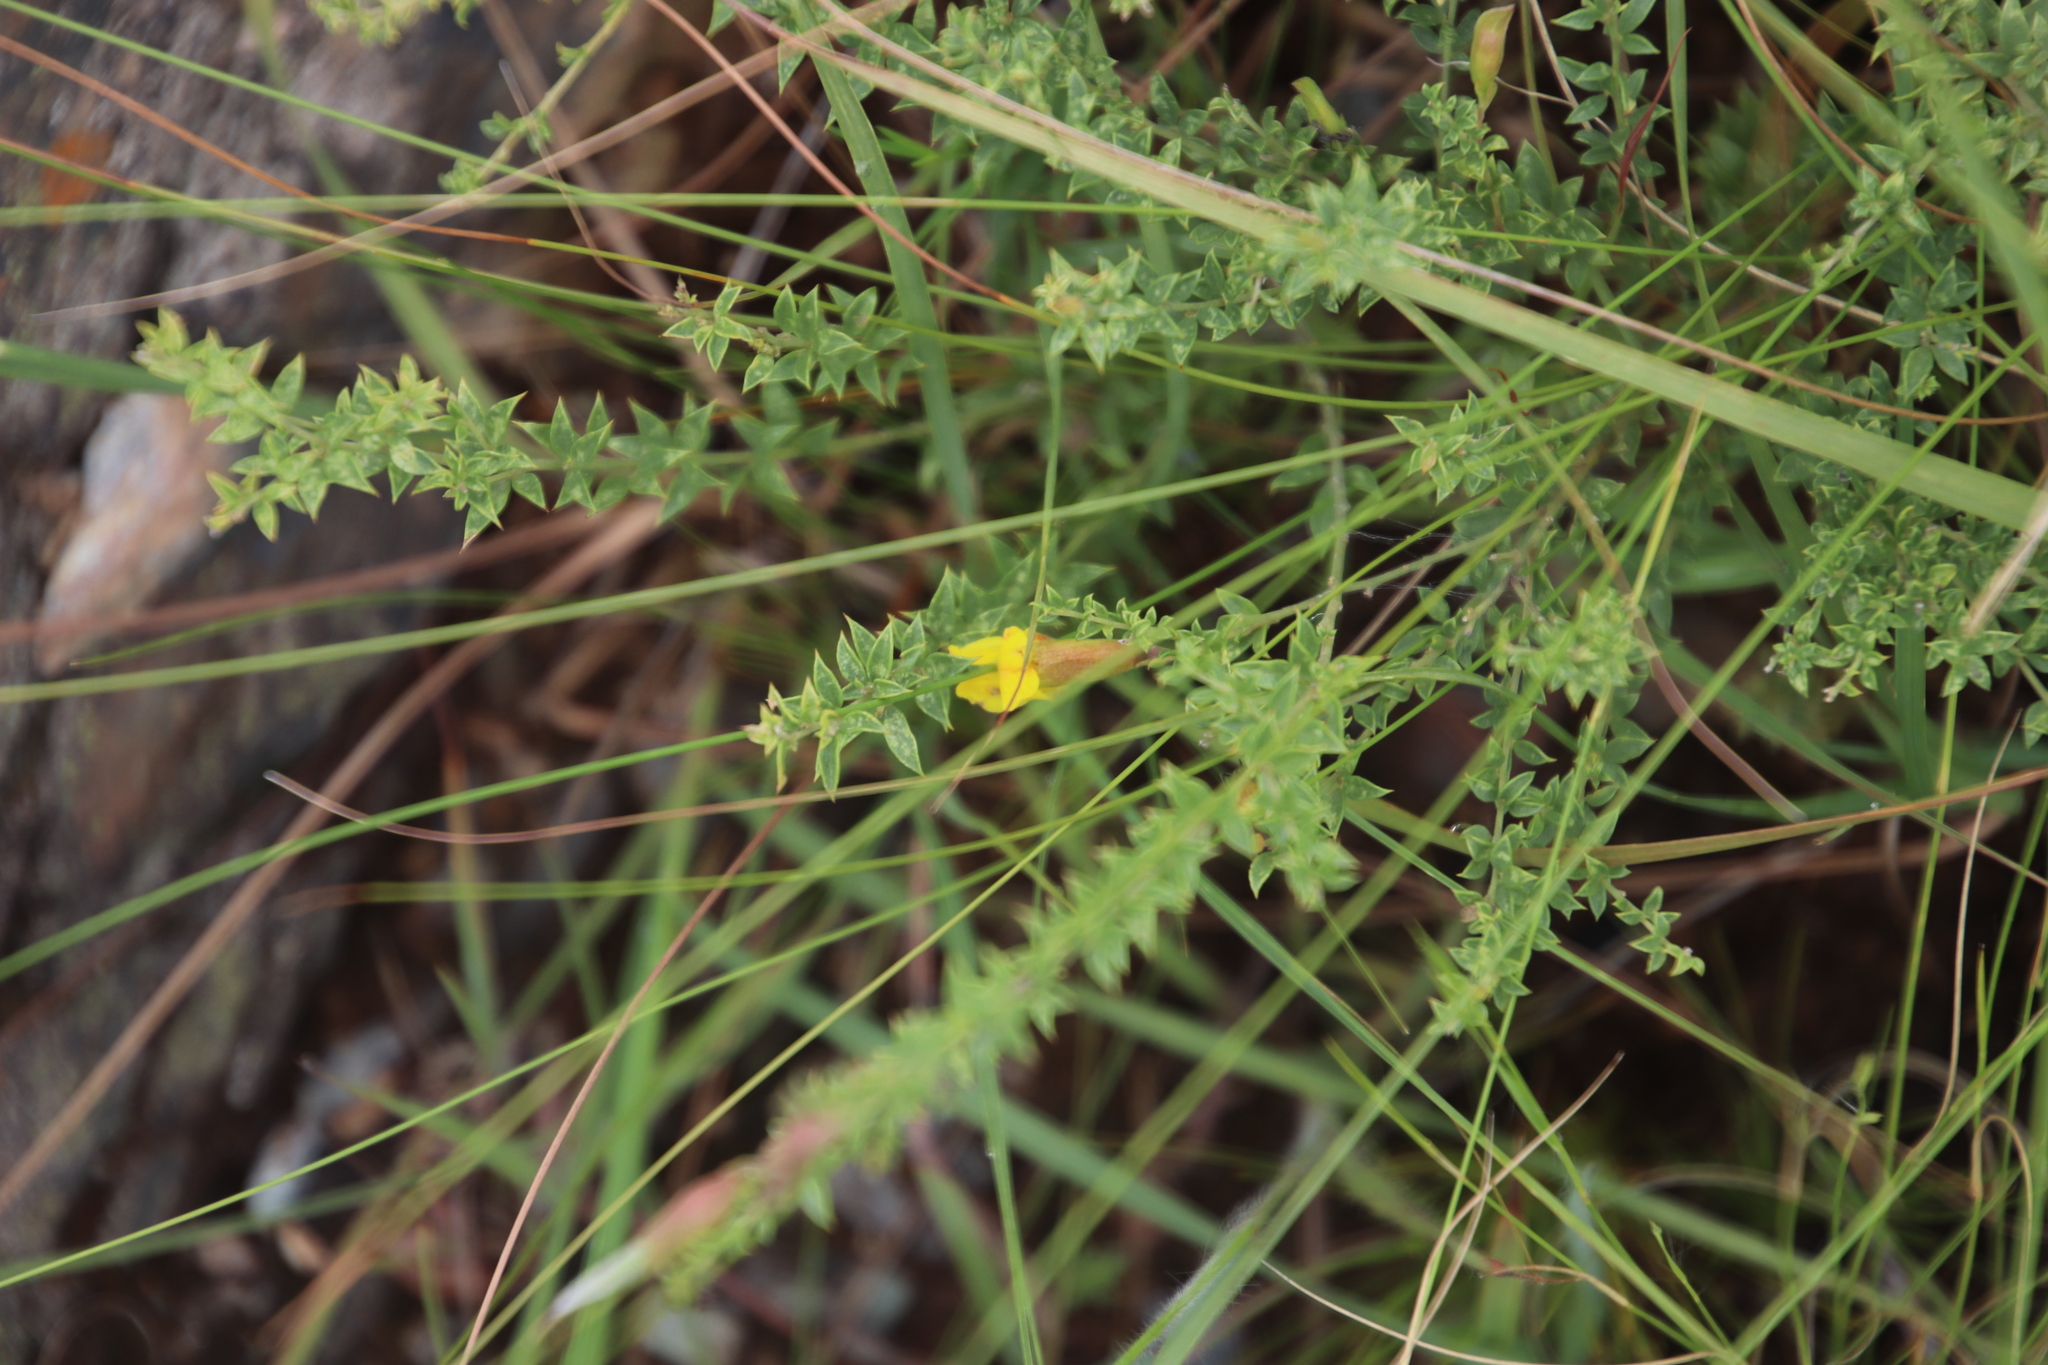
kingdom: Plantae
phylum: Tracheophyta
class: Magnoliopsida
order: Fabales
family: Fabaceae
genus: Pearsonia
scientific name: Pearsonia aristata
